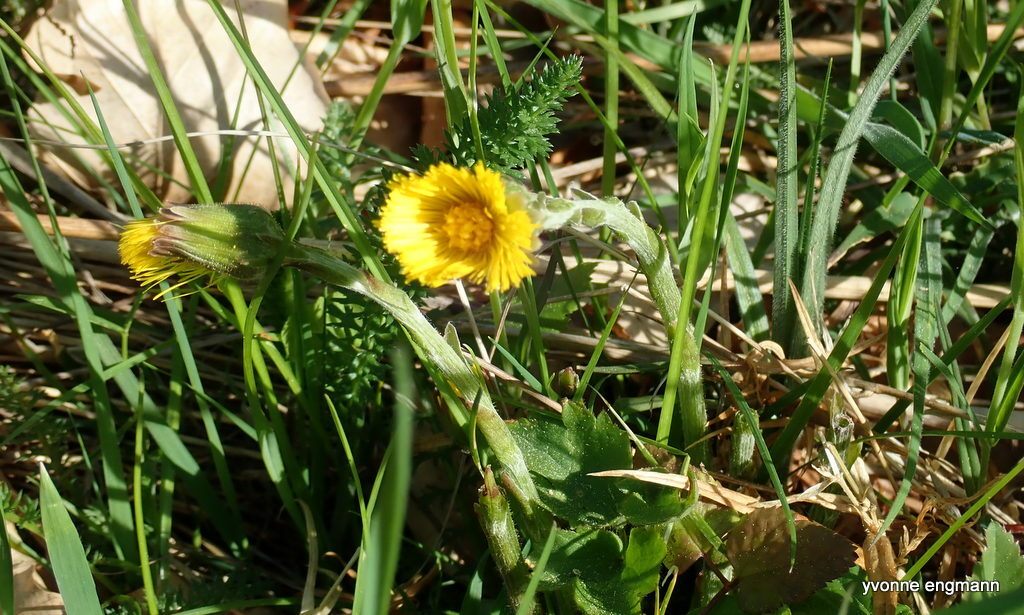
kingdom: Plantae
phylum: Tracheophyta
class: Magnoliopsida
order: Asterales
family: Asteraceae
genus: Tussilago
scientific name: Tussilago farfara
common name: Coltsfoot
